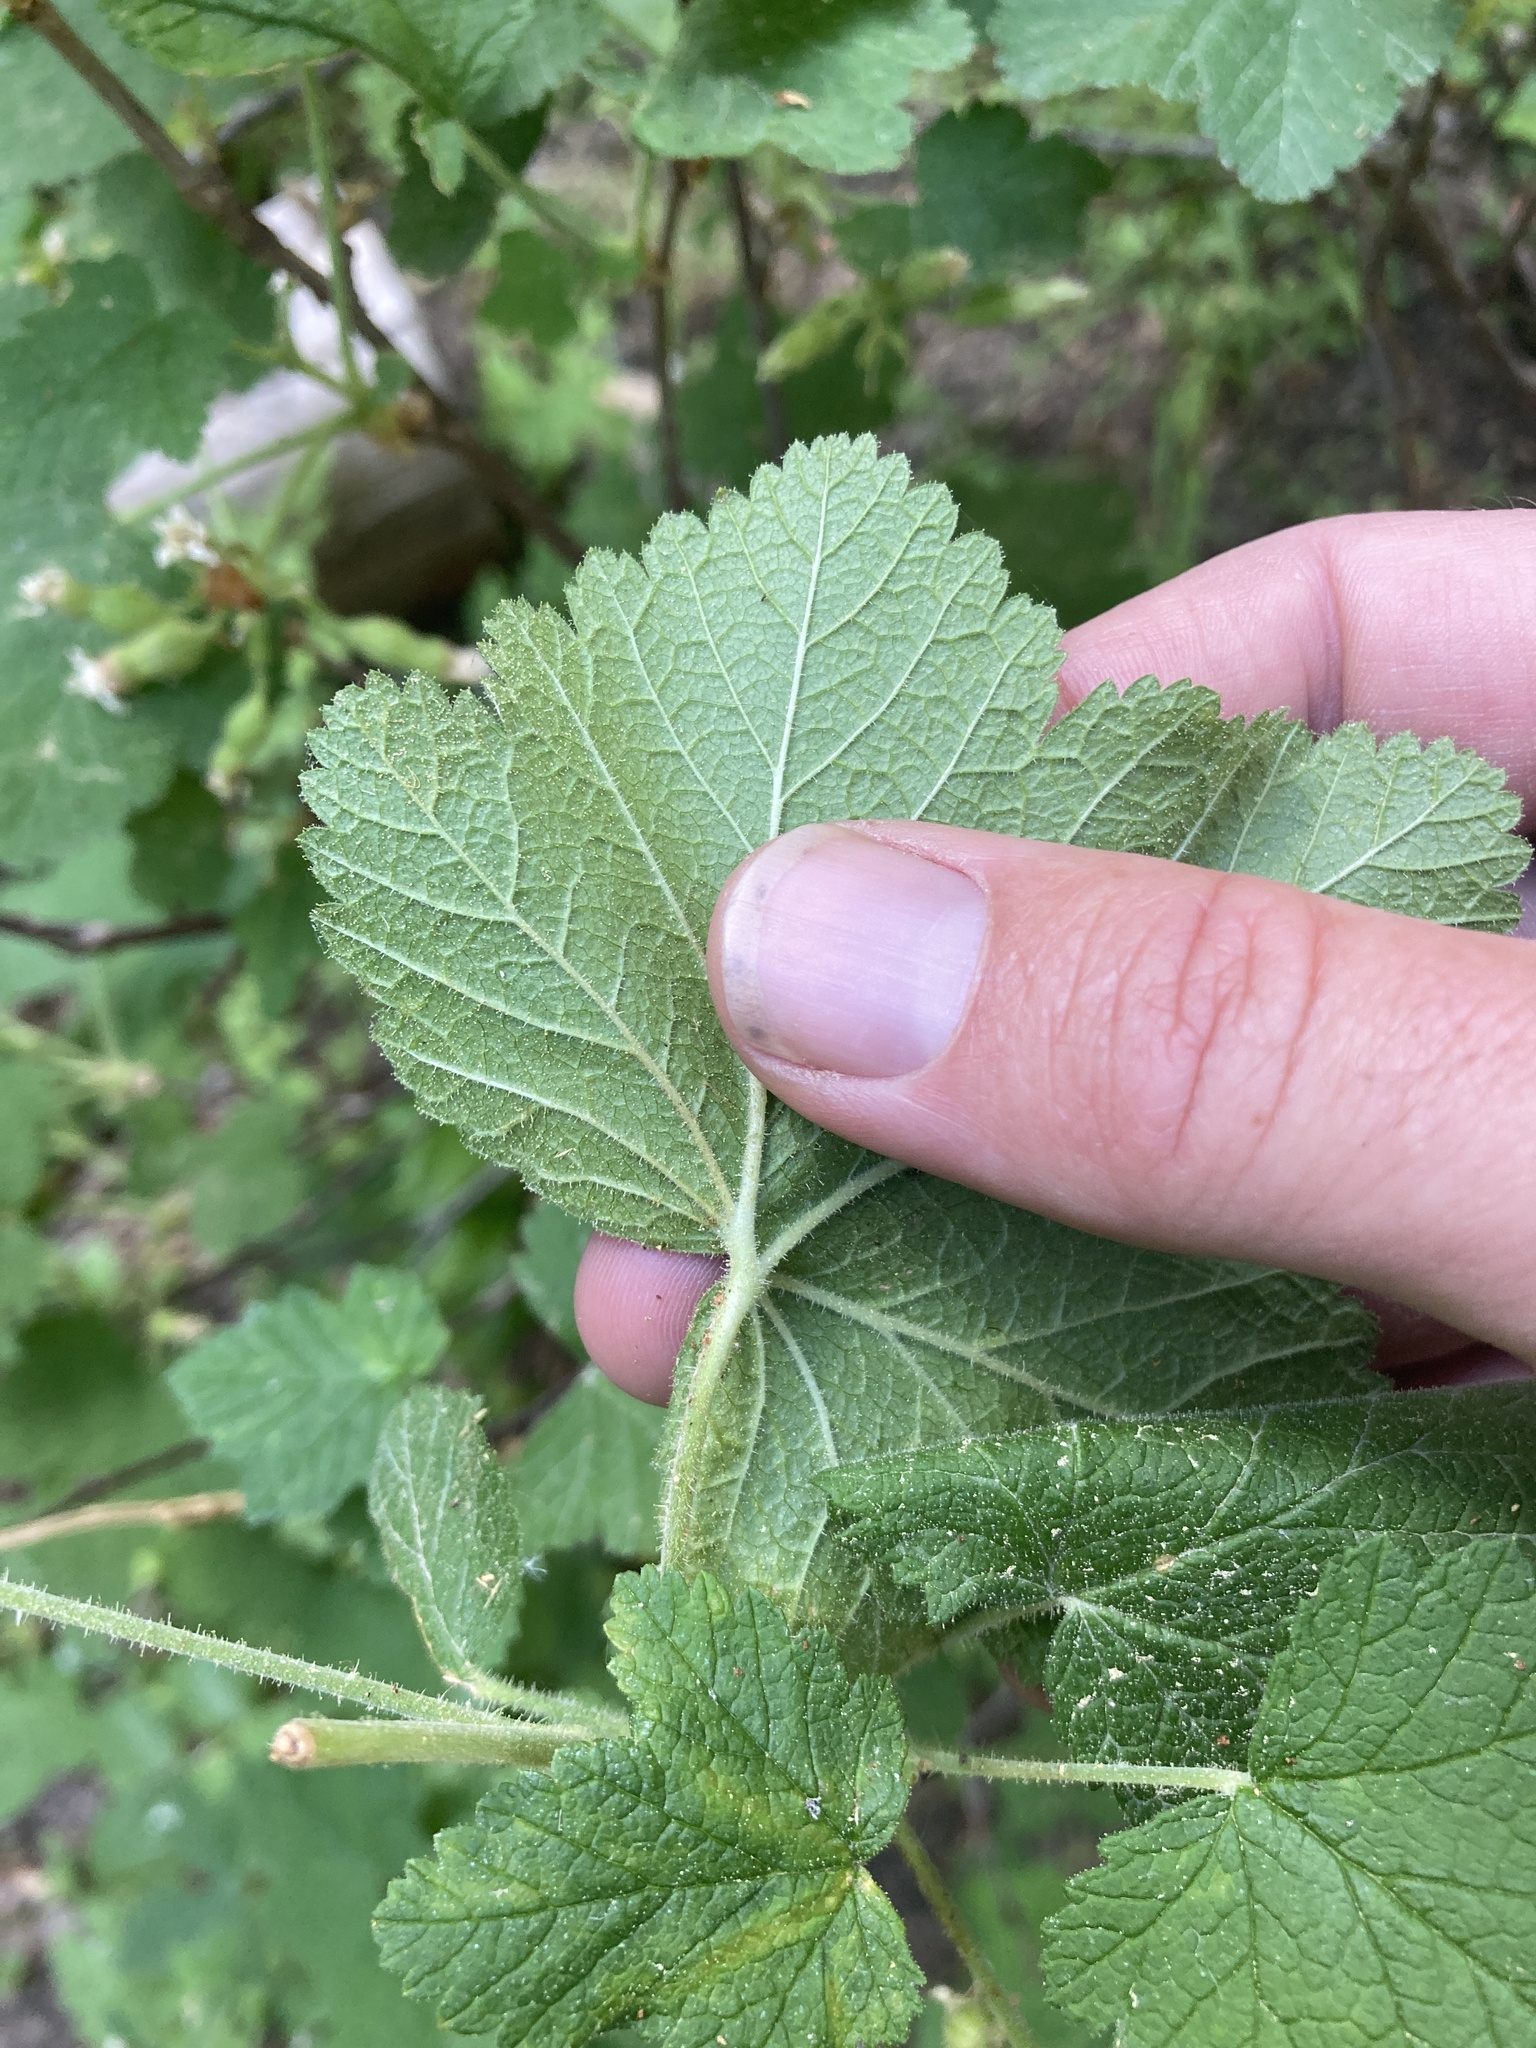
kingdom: Plantae
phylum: Tracheophyta
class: Magnoliopsida
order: Saxifragales
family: Grossulariaceae
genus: Ribes
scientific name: Ribes viscosissimum
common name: Sticky currant
